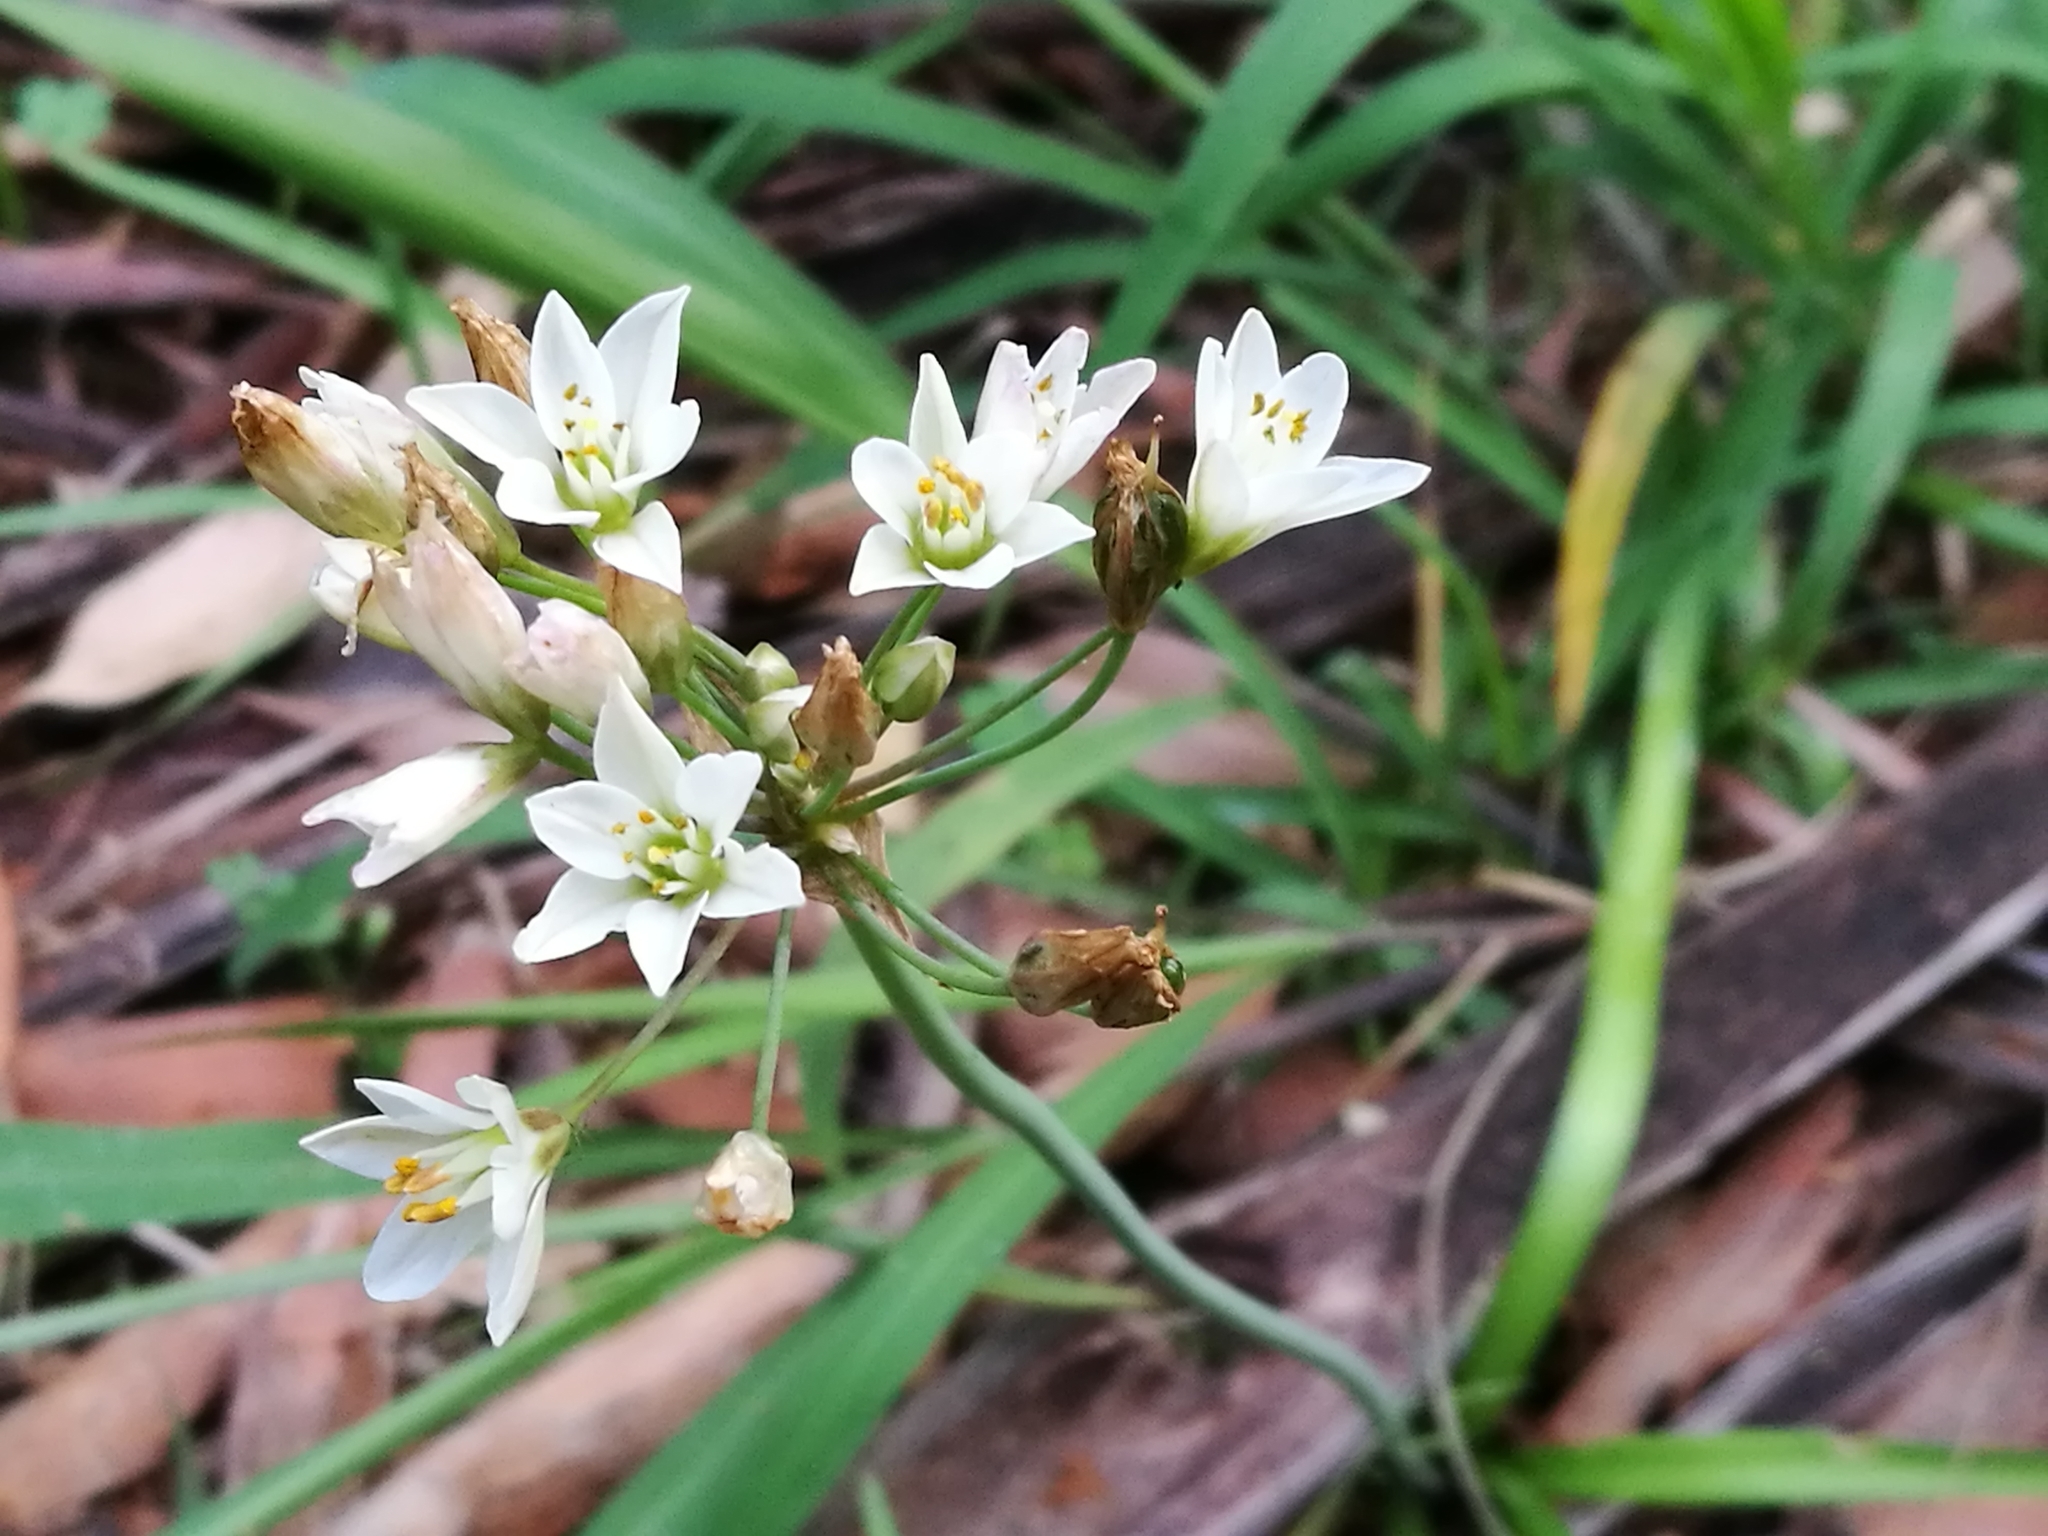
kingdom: Plantae
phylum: Tracheophyta
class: Liliopsida
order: Asparagales
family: Amaryllidaceae
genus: Nothoscordum
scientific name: Nothoscordum gracile
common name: Slender false garlic
